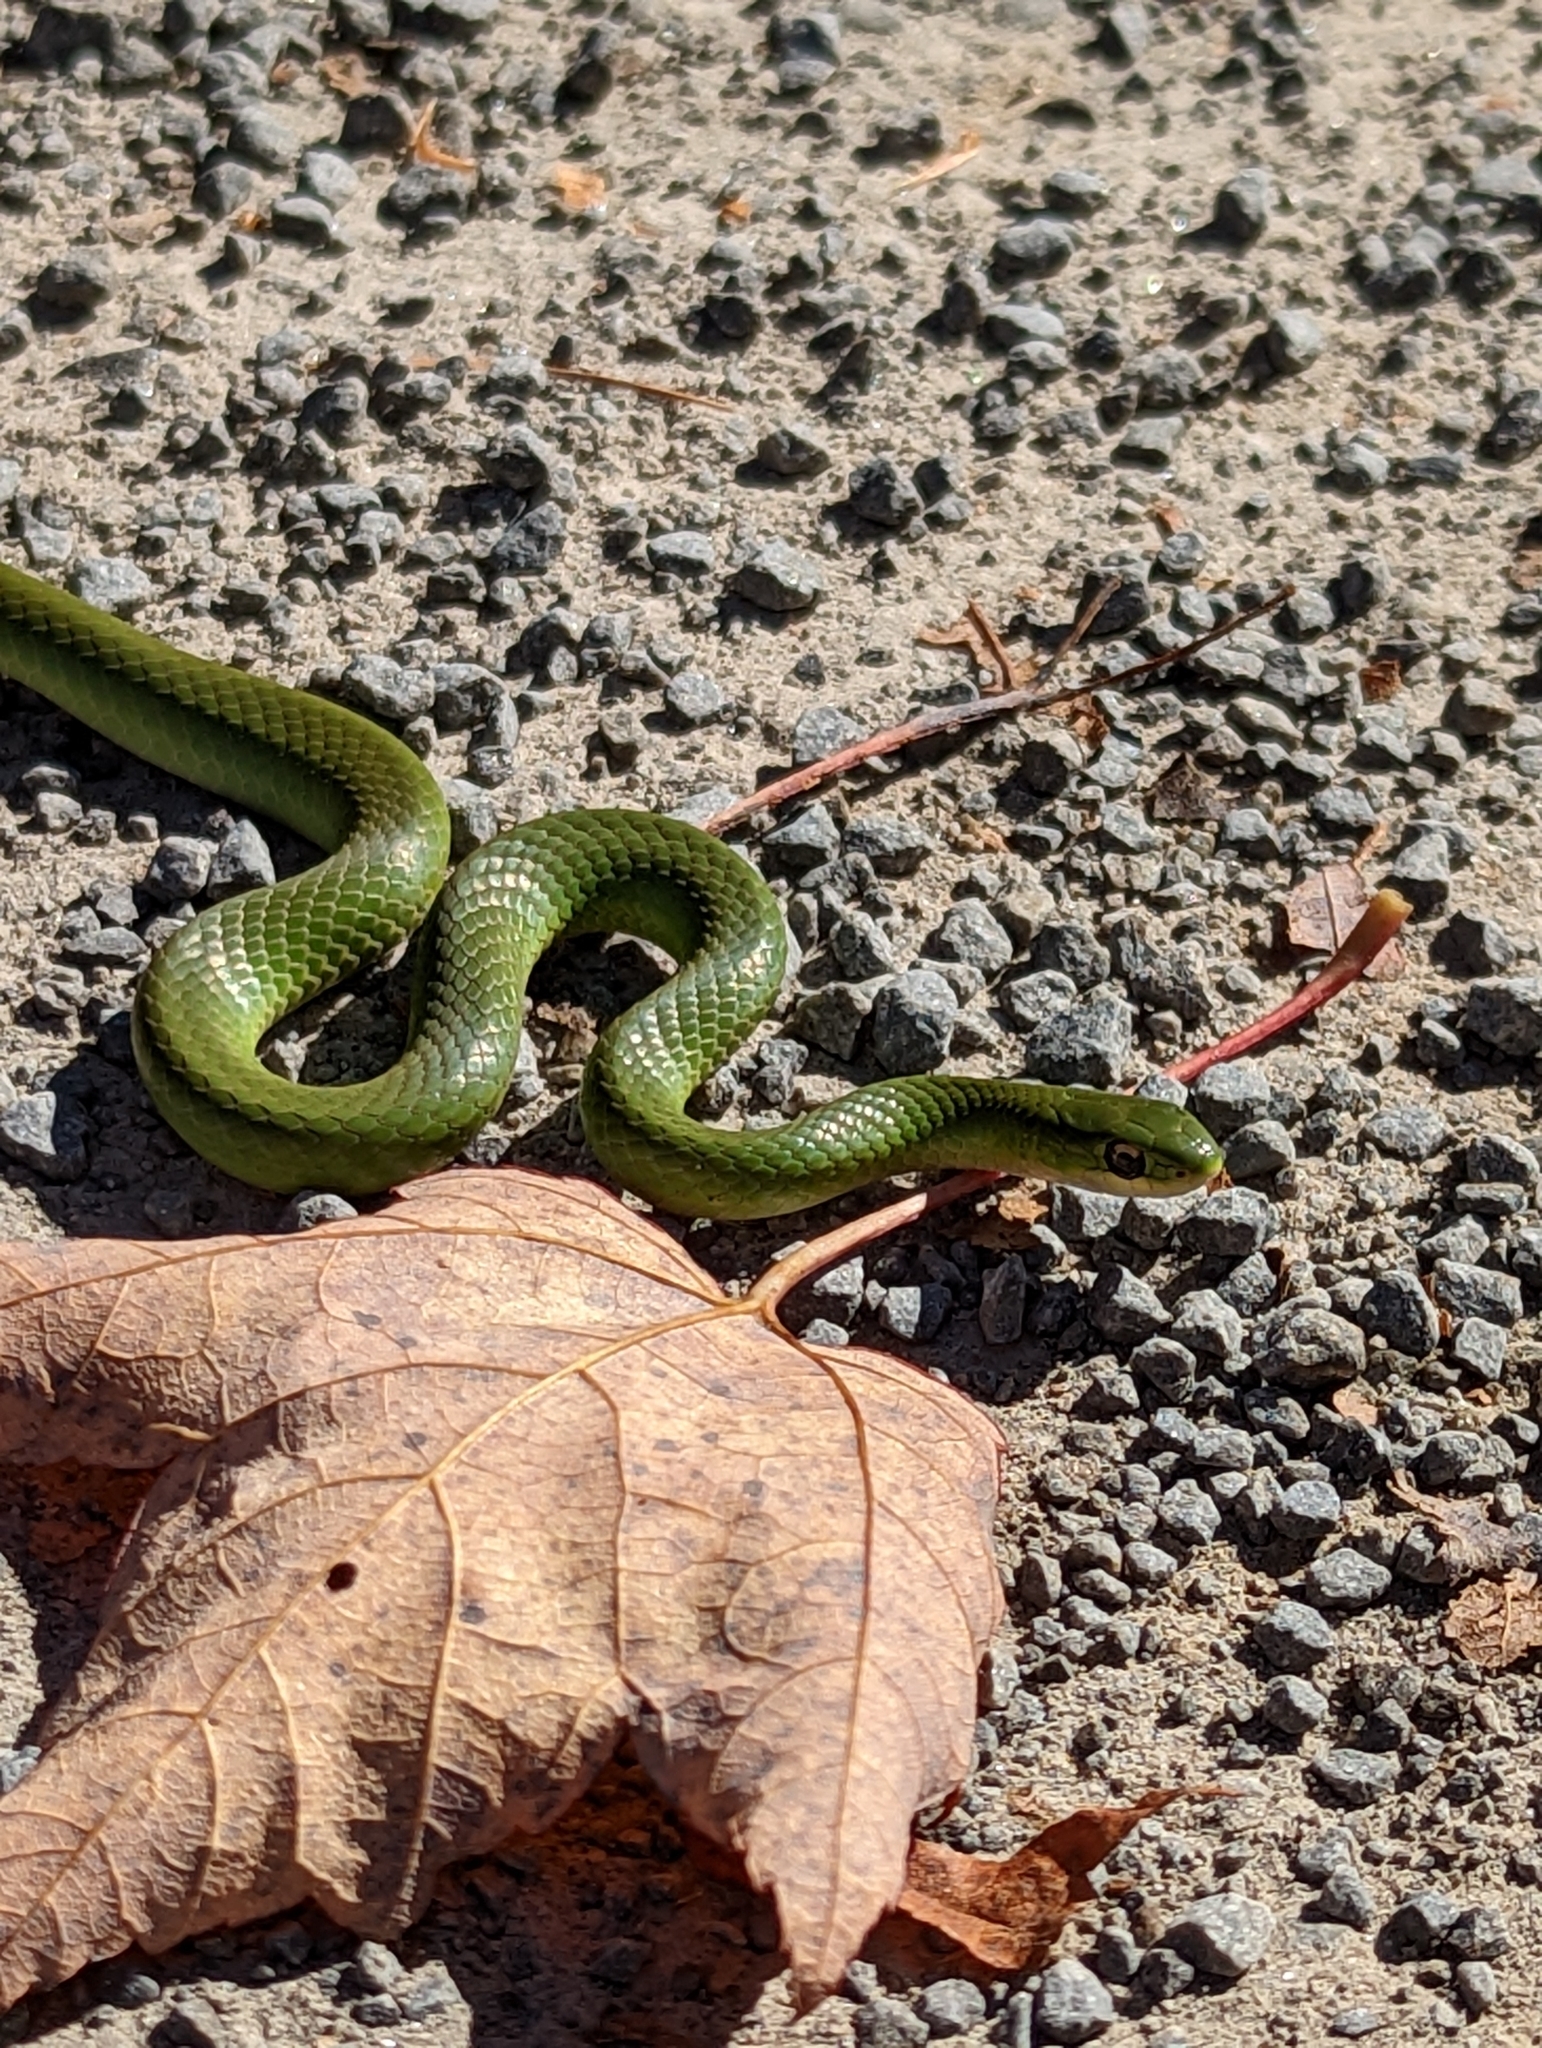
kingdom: Animalia
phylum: Chordata
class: Squamata
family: Colubridae
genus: Opheodrys
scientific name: Opheodrys vernalis
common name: Smooth green snake
